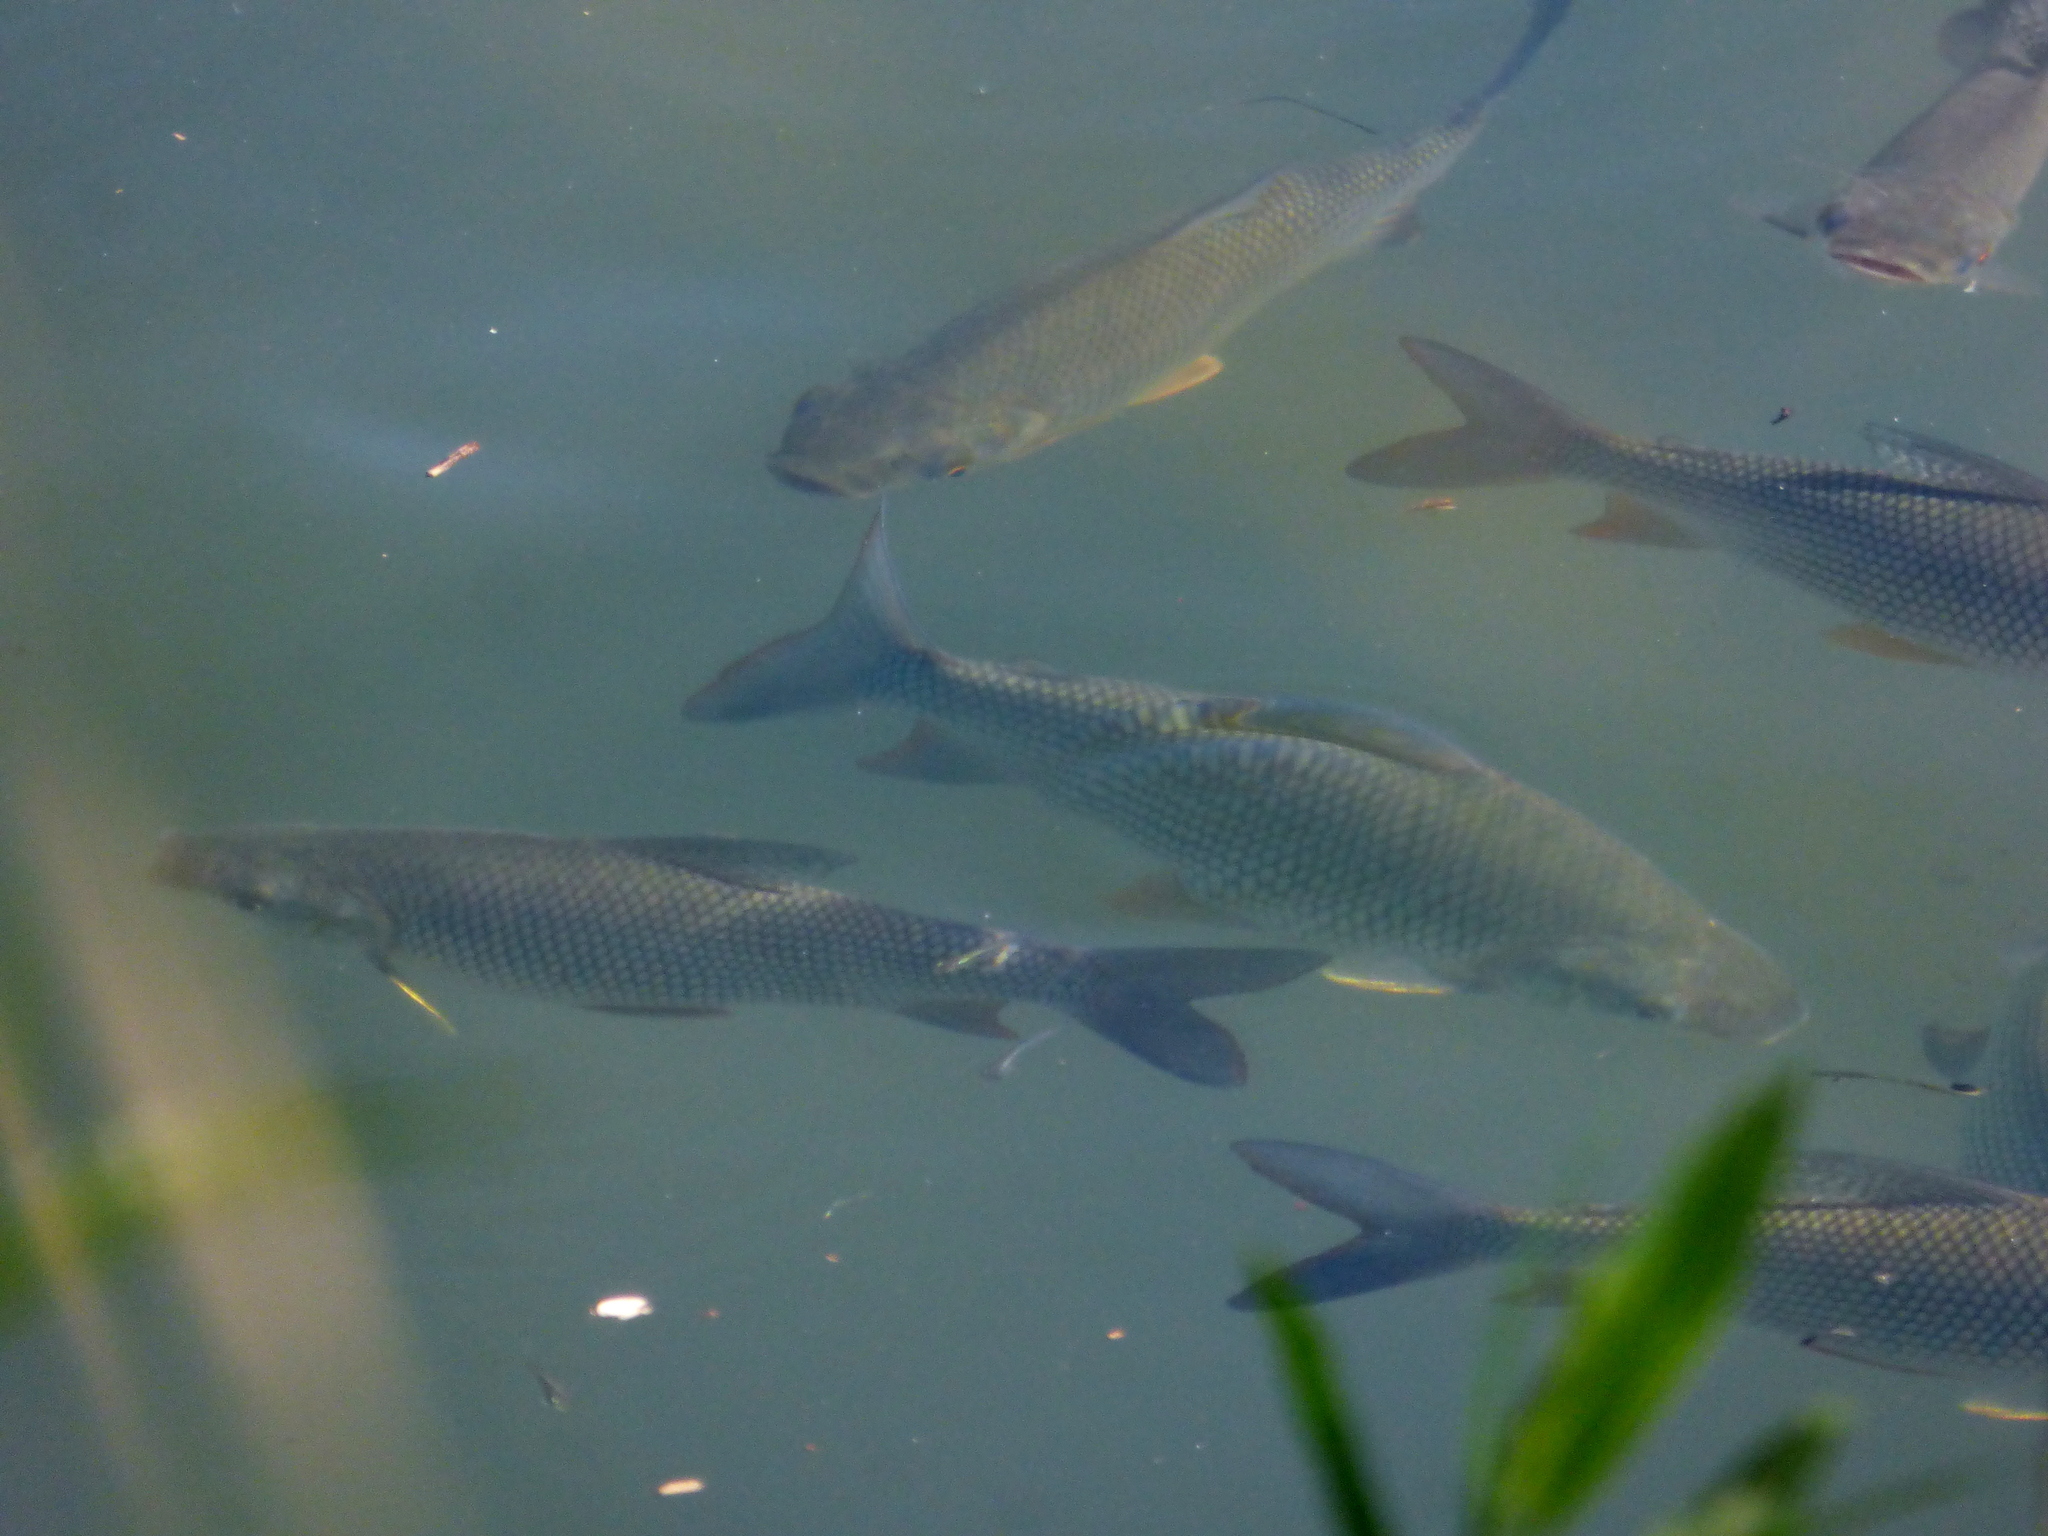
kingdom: Animalia
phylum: Chordata
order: Characiformes
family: Prochilodontidae
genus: Prochilodus
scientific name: Prochilodus lineatus
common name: Curimbata
